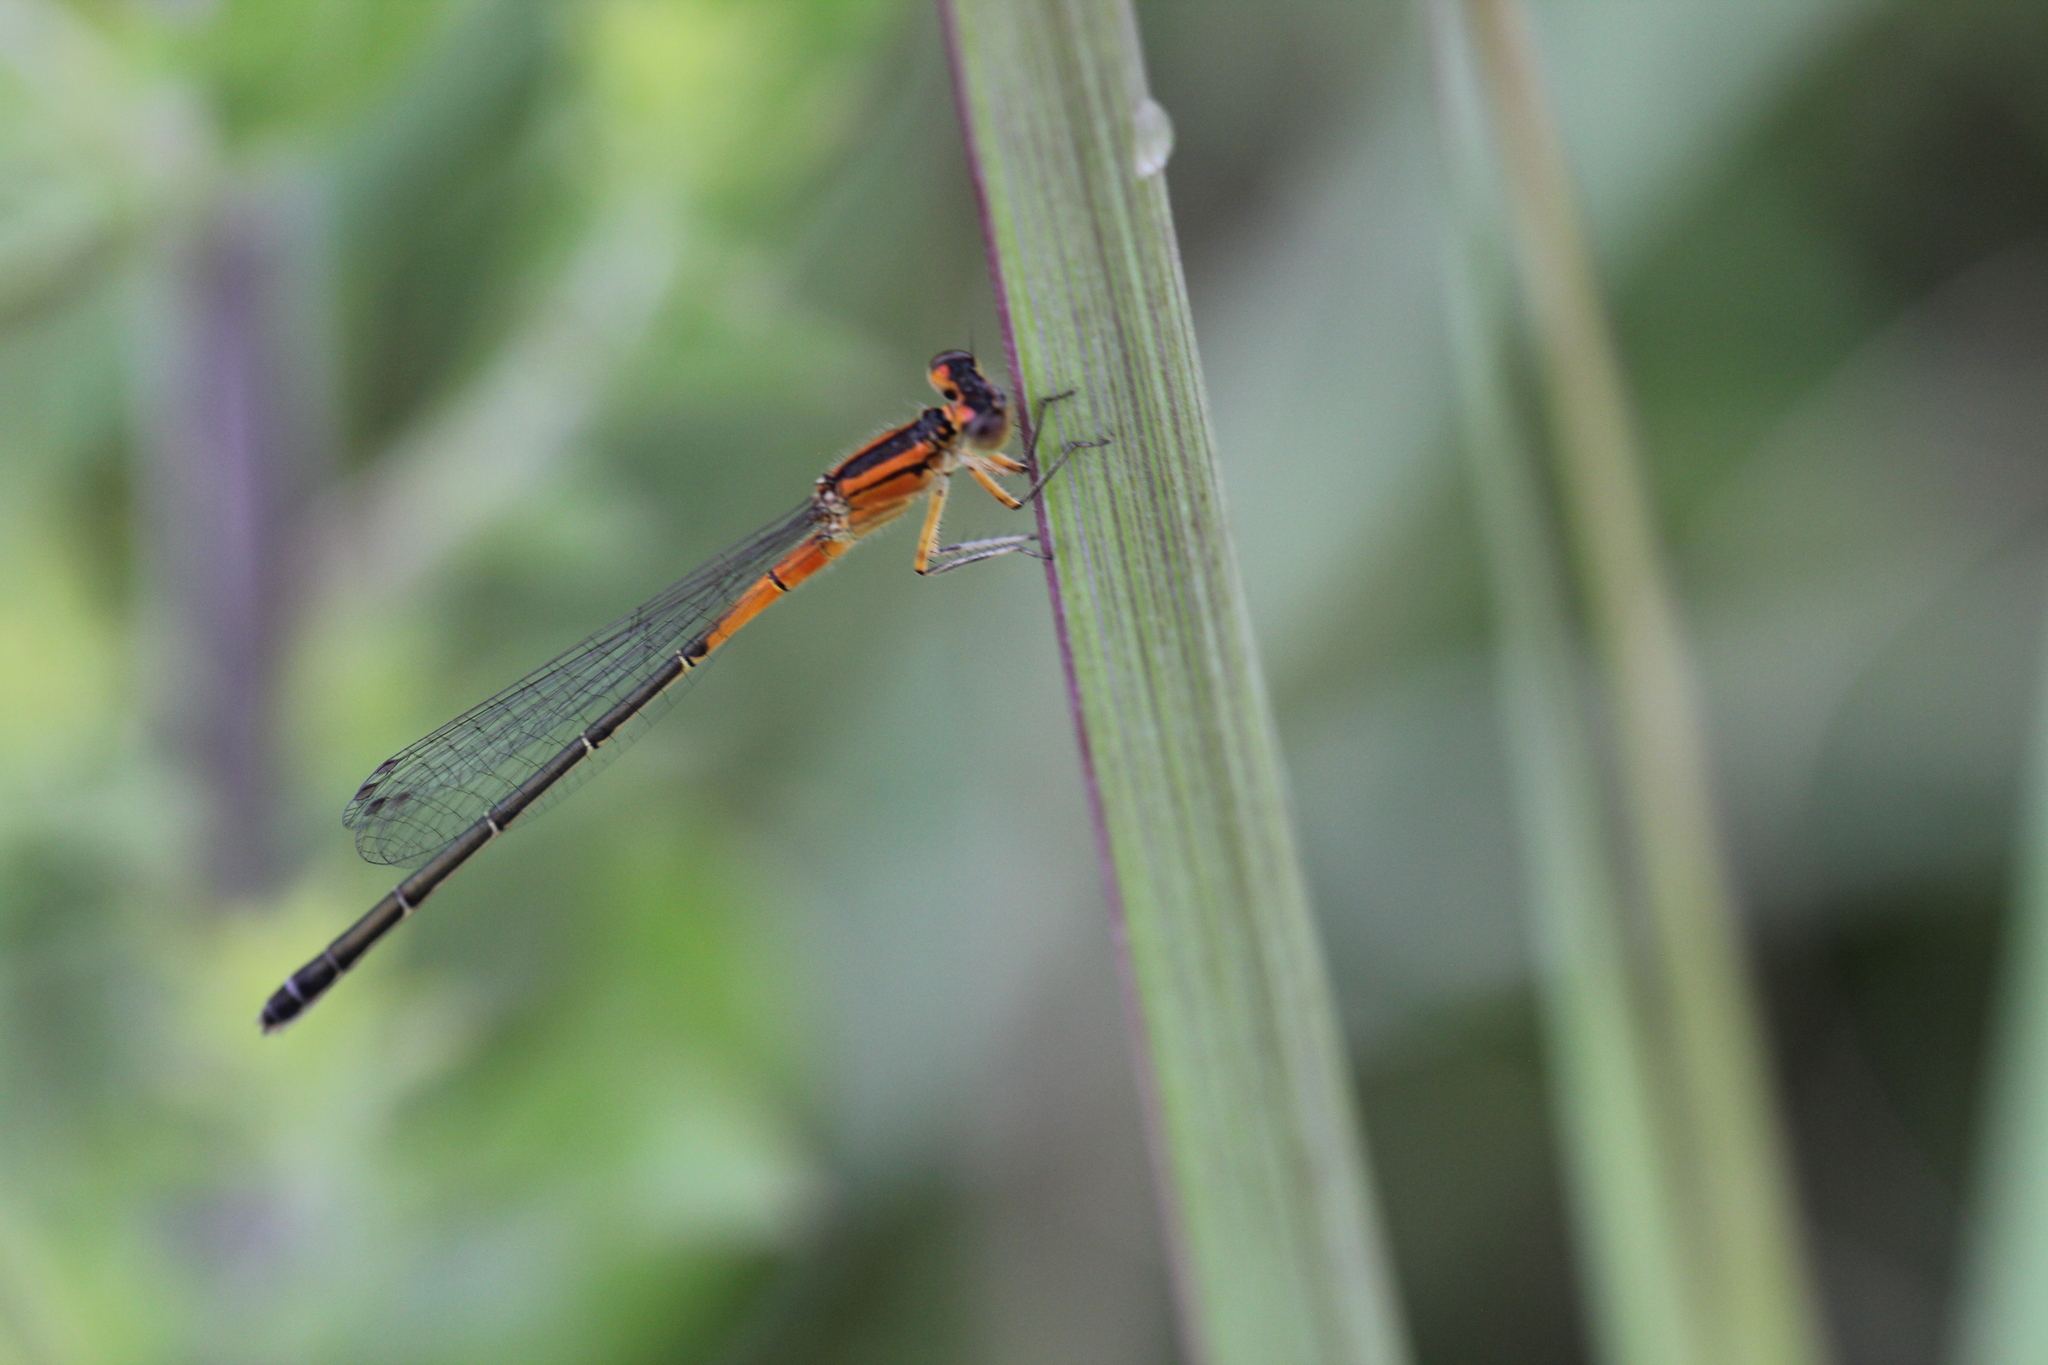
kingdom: Animalia
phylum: Arthropoda
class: Insecta
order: Odonata
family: Coenagrionidae
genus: Ischnura
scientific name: Ischnura verticalis
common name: Eastern forktail
